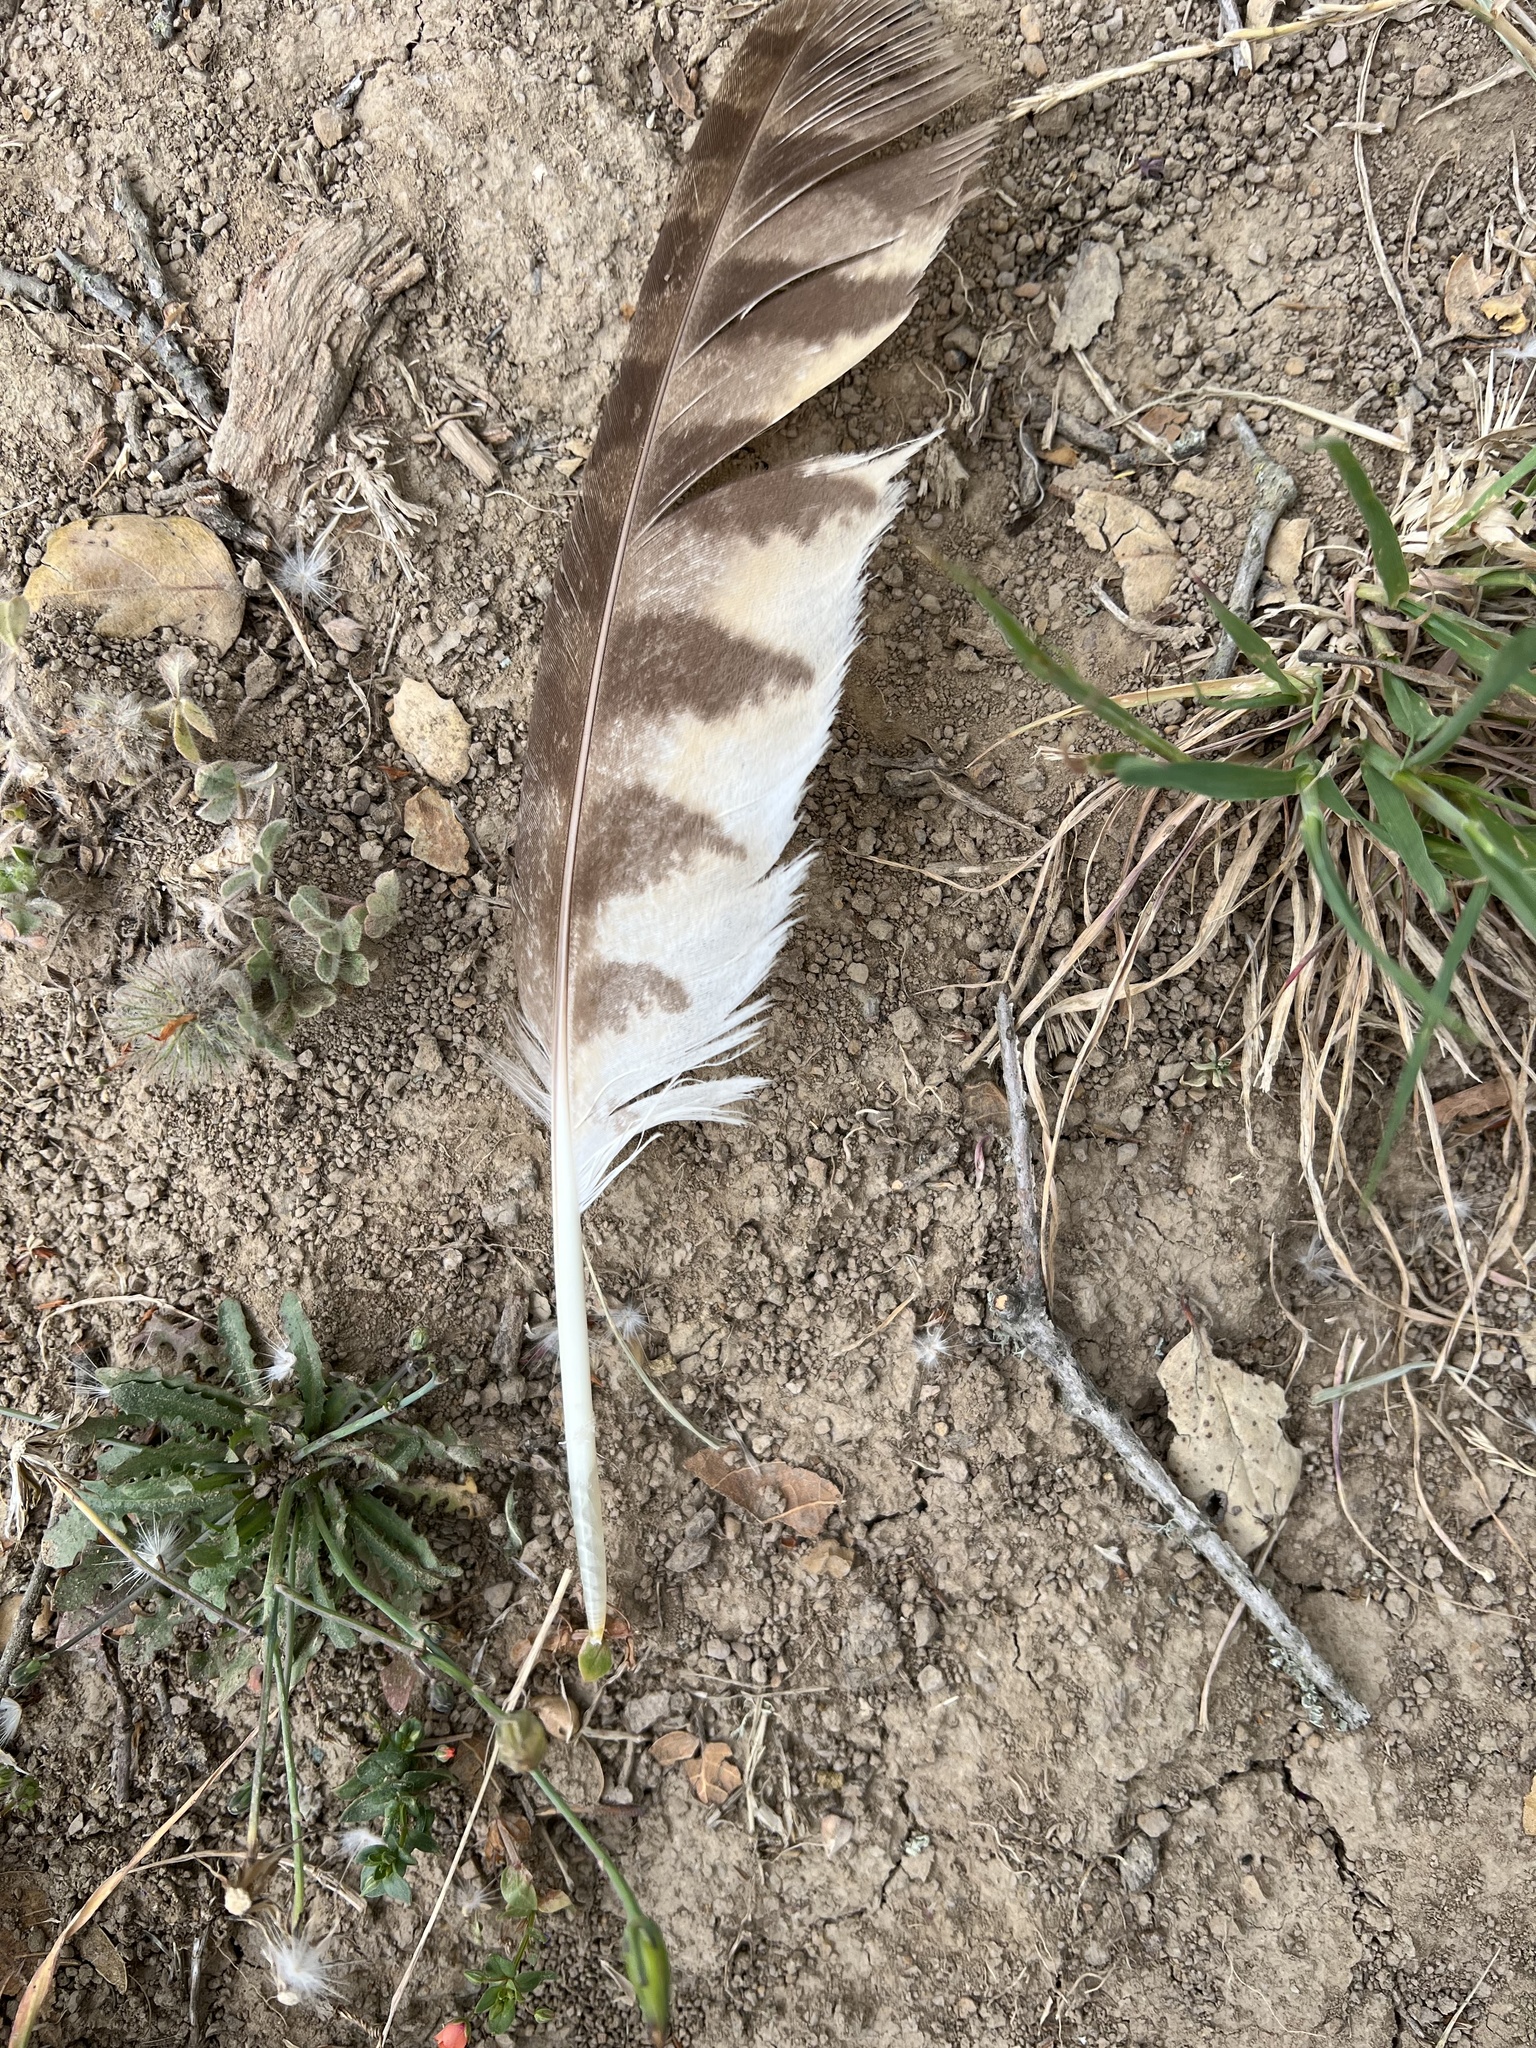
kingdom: Animalia
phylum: Chordata
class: Aves
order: Strigiformes
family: Strigidae
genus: Bubo
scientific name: Bubo virginianus
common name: Great horned owl
